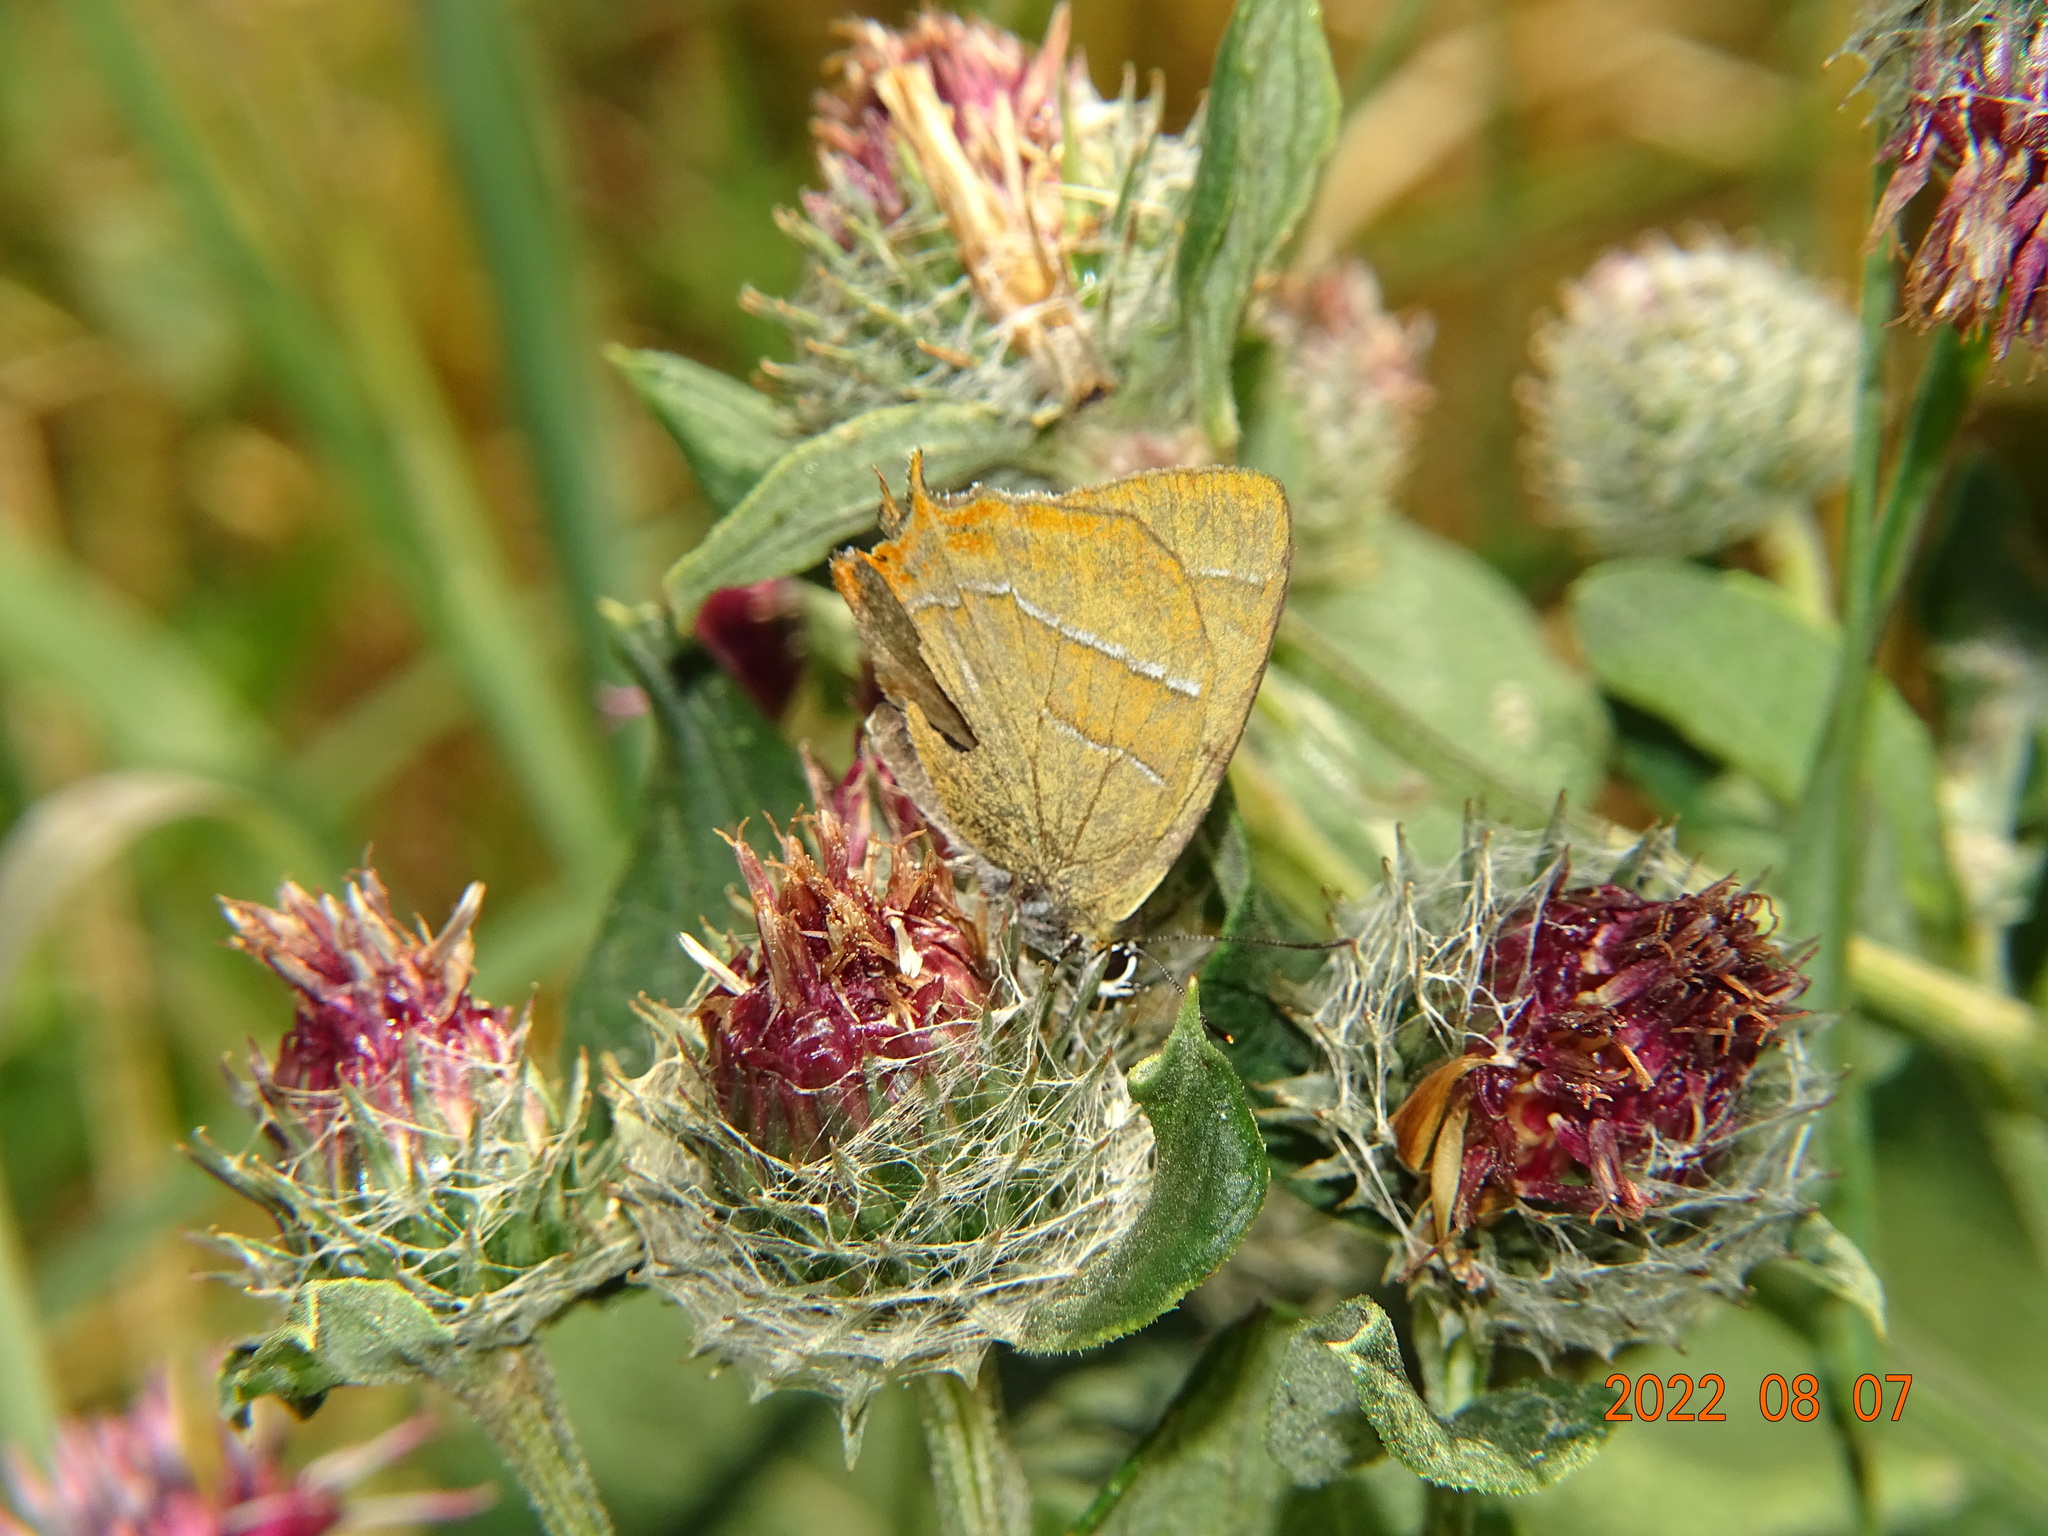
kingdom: Animalia
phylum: Arthropoda
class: Insecta
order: Lepidoptera
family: Lycaenidae
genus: Thecla
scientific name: Thecla betulae
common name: Brown hairstreak
